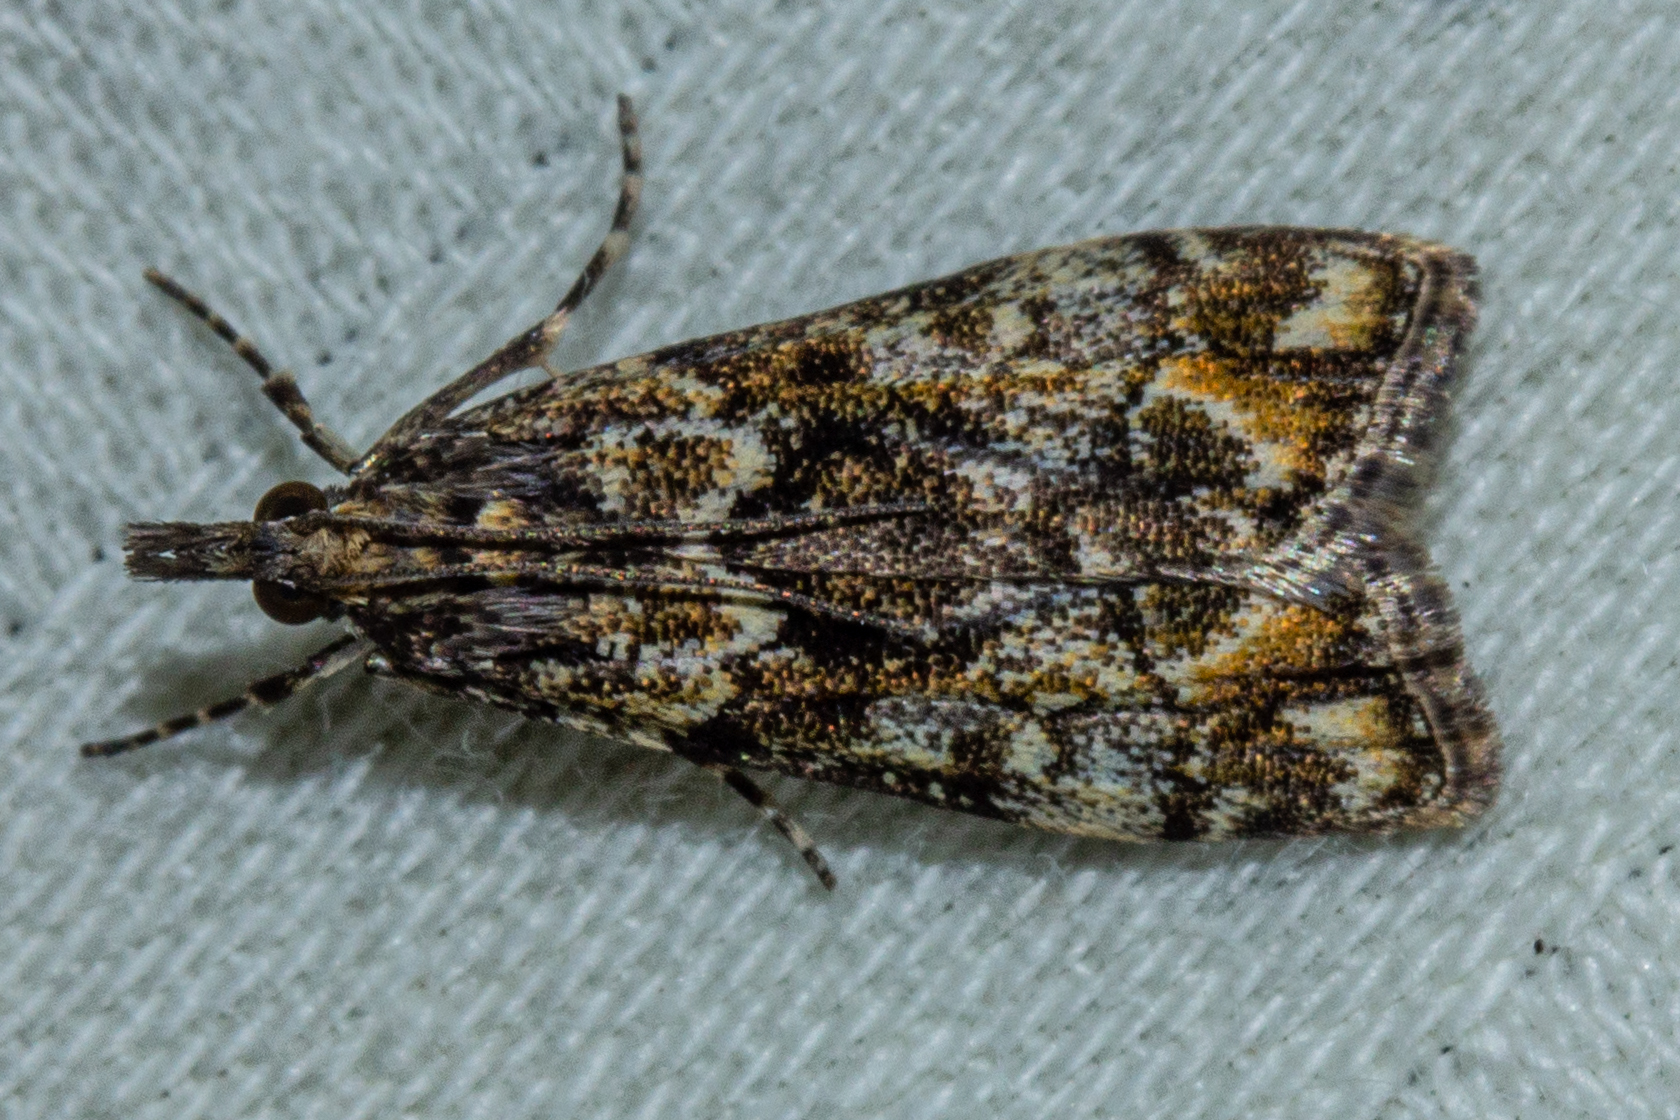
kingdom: Animalia
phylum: Arthropoda
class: Insecta
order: Lepidoptera
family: Crambidae
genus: Eudonia
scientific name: Eudonia minualis
